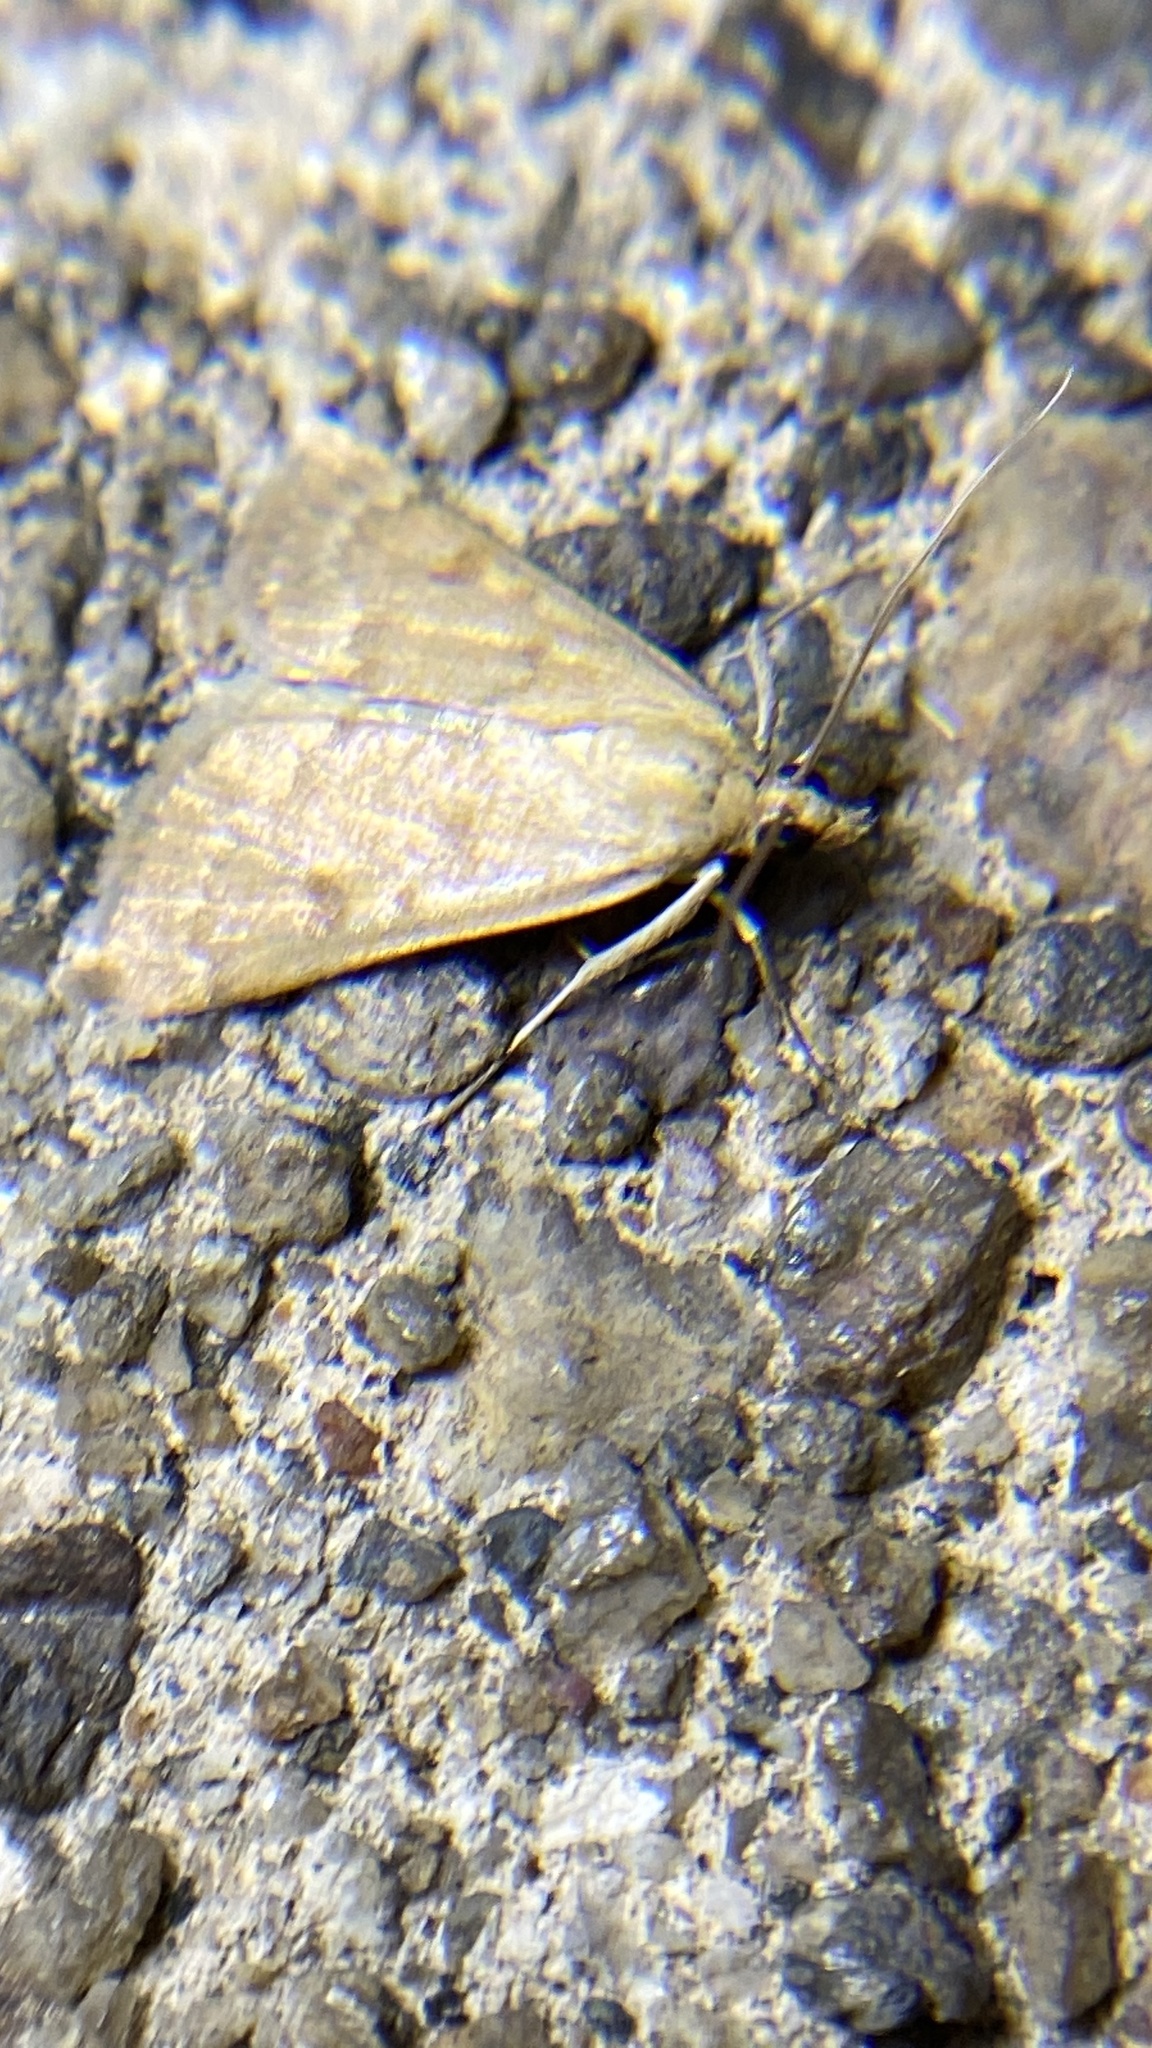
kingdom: Animalia
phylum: Arthropoda
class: Insecta
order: Lepidoptera
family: Crambidae
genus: Achyra
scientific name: Achyra rantalis
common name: Garden webworm
